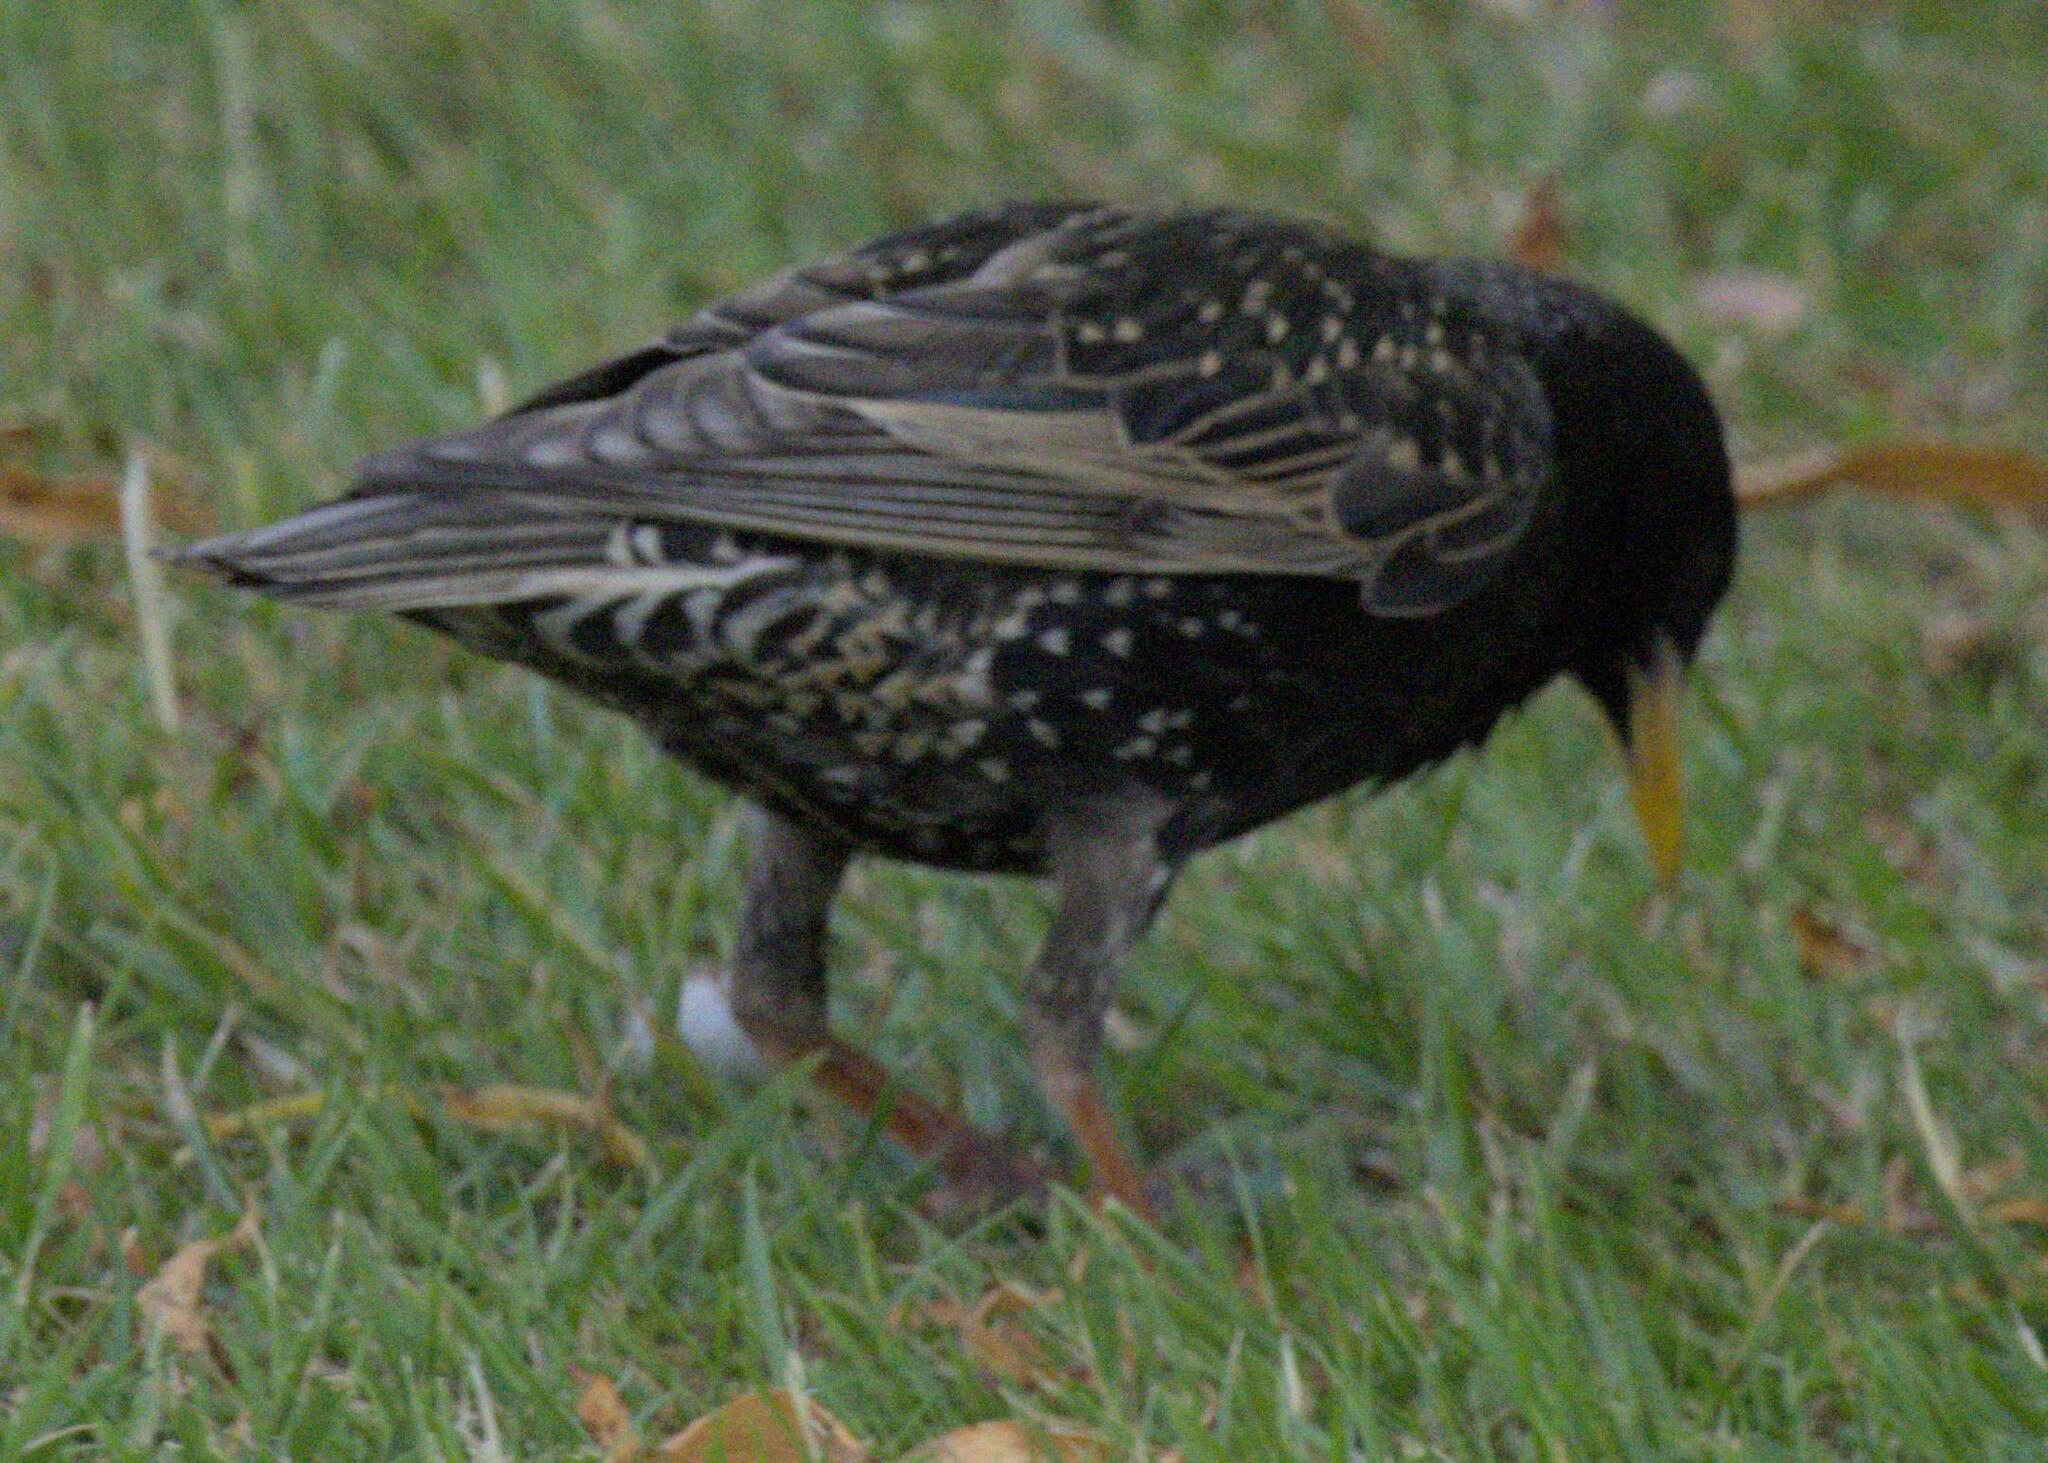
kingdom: Animalia
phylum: Chordata
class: Aves
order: Passeriformes
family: Sturnidae
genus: Sturnus
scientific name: Sturnus vulgaris
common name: Common starling
